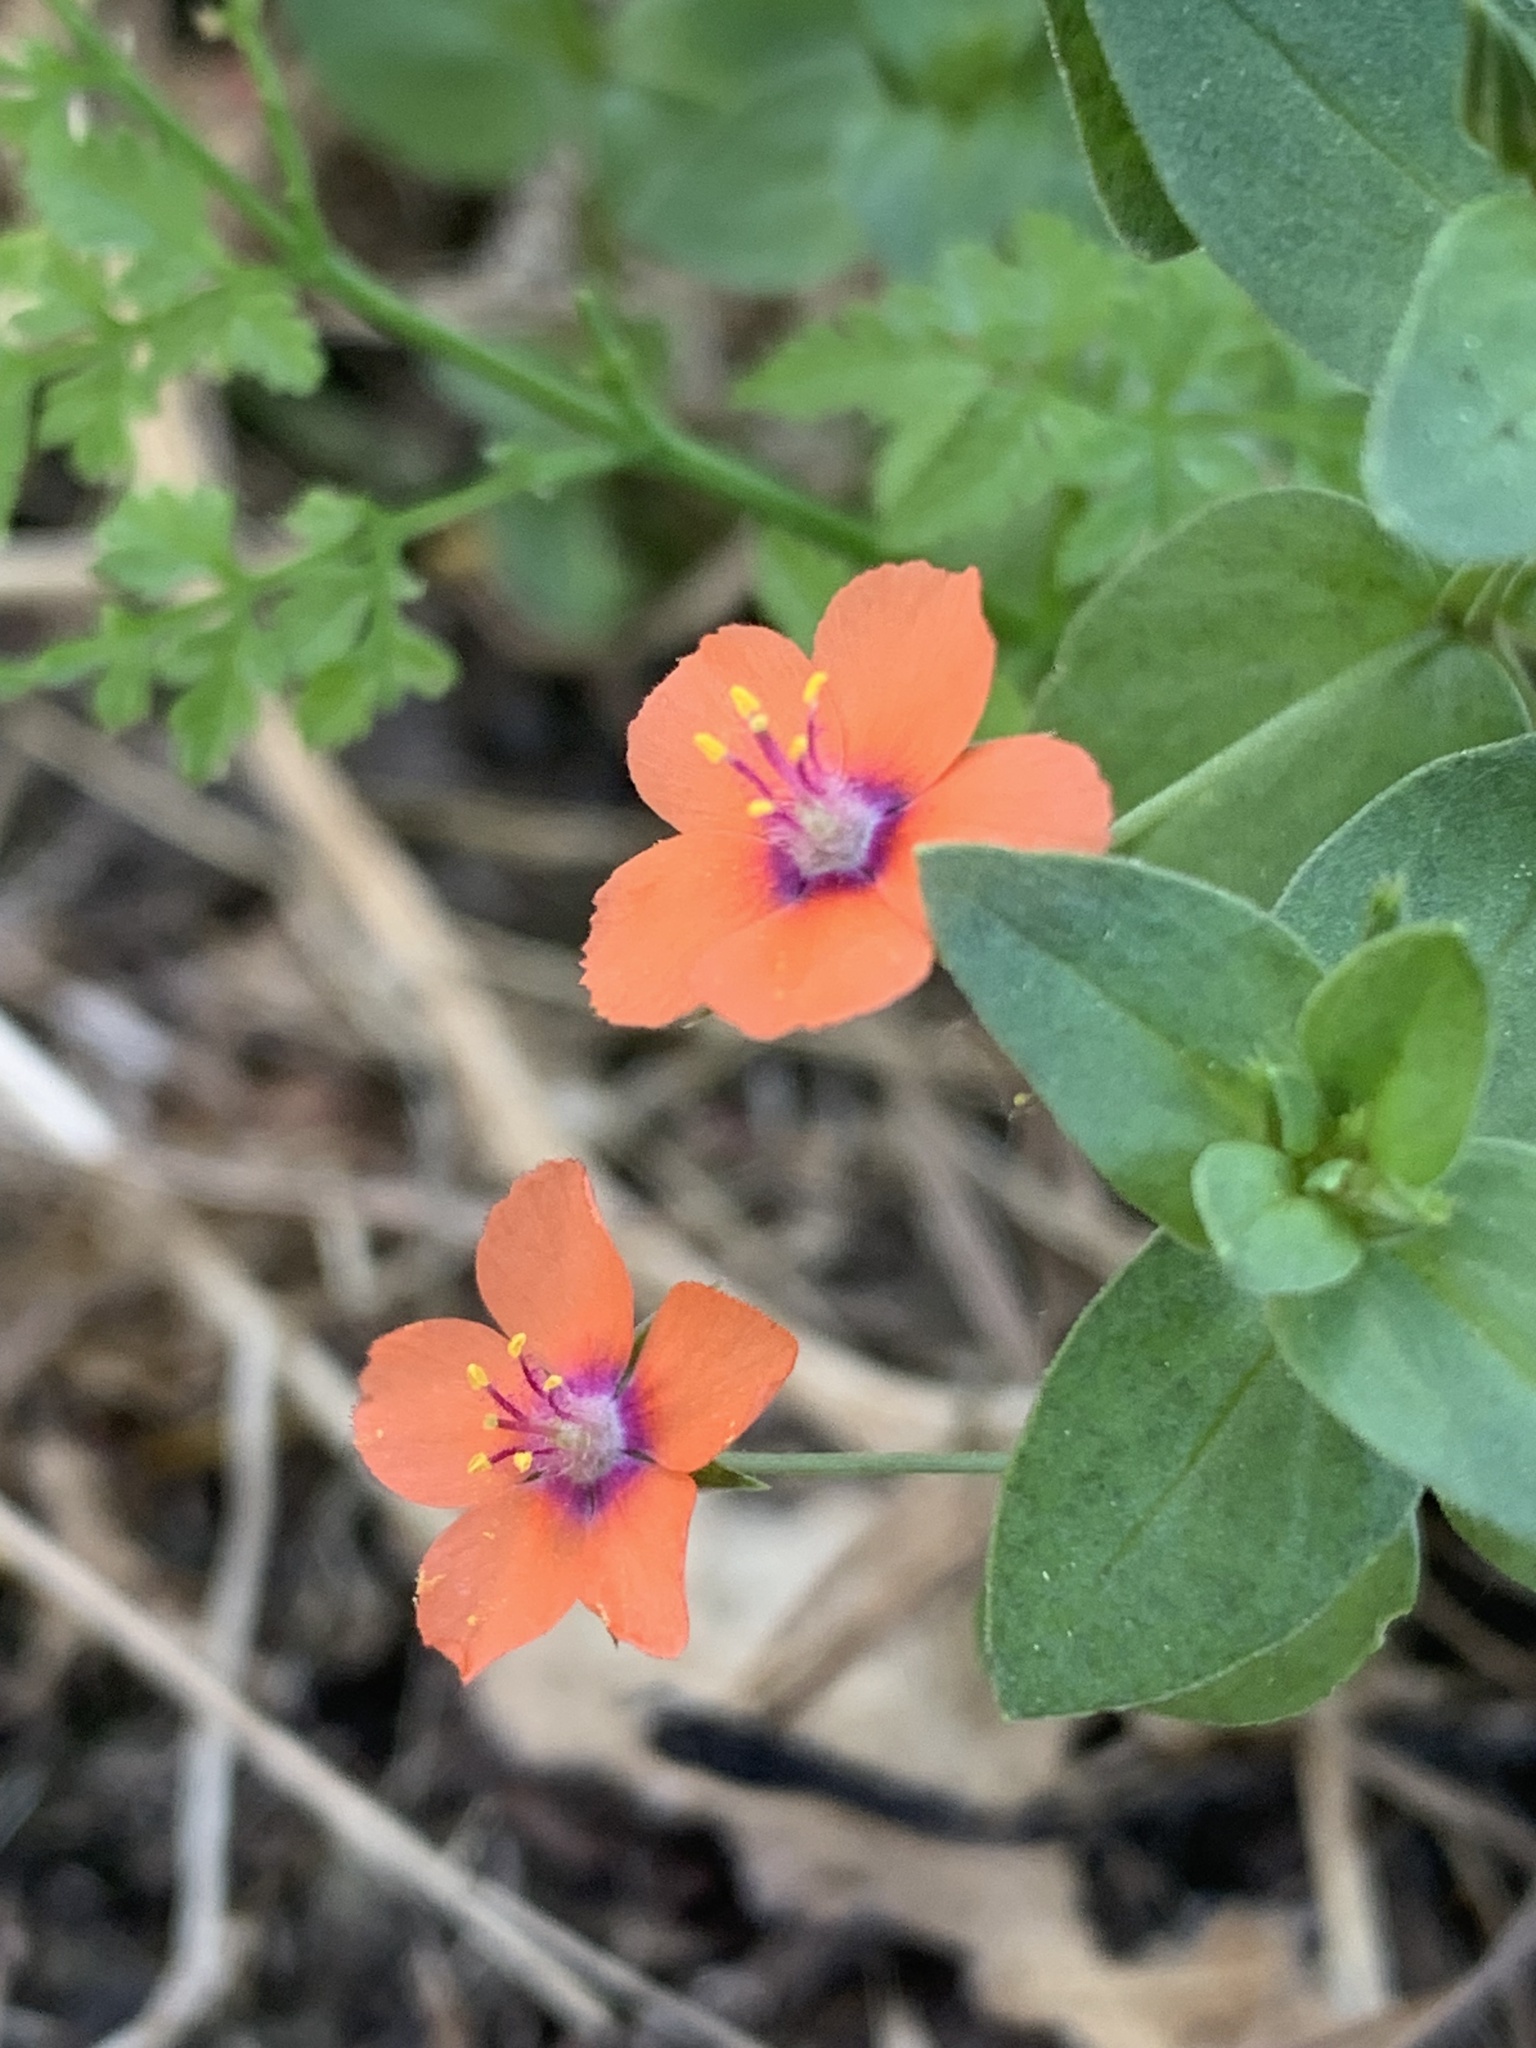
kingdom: Plantae
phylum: Tracheophyta
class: Magnoliopsida
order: Ericales
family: Primulaceae
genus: Lysimachia
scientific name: Lysimachia arvensis
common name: Scarlet pimpernel
